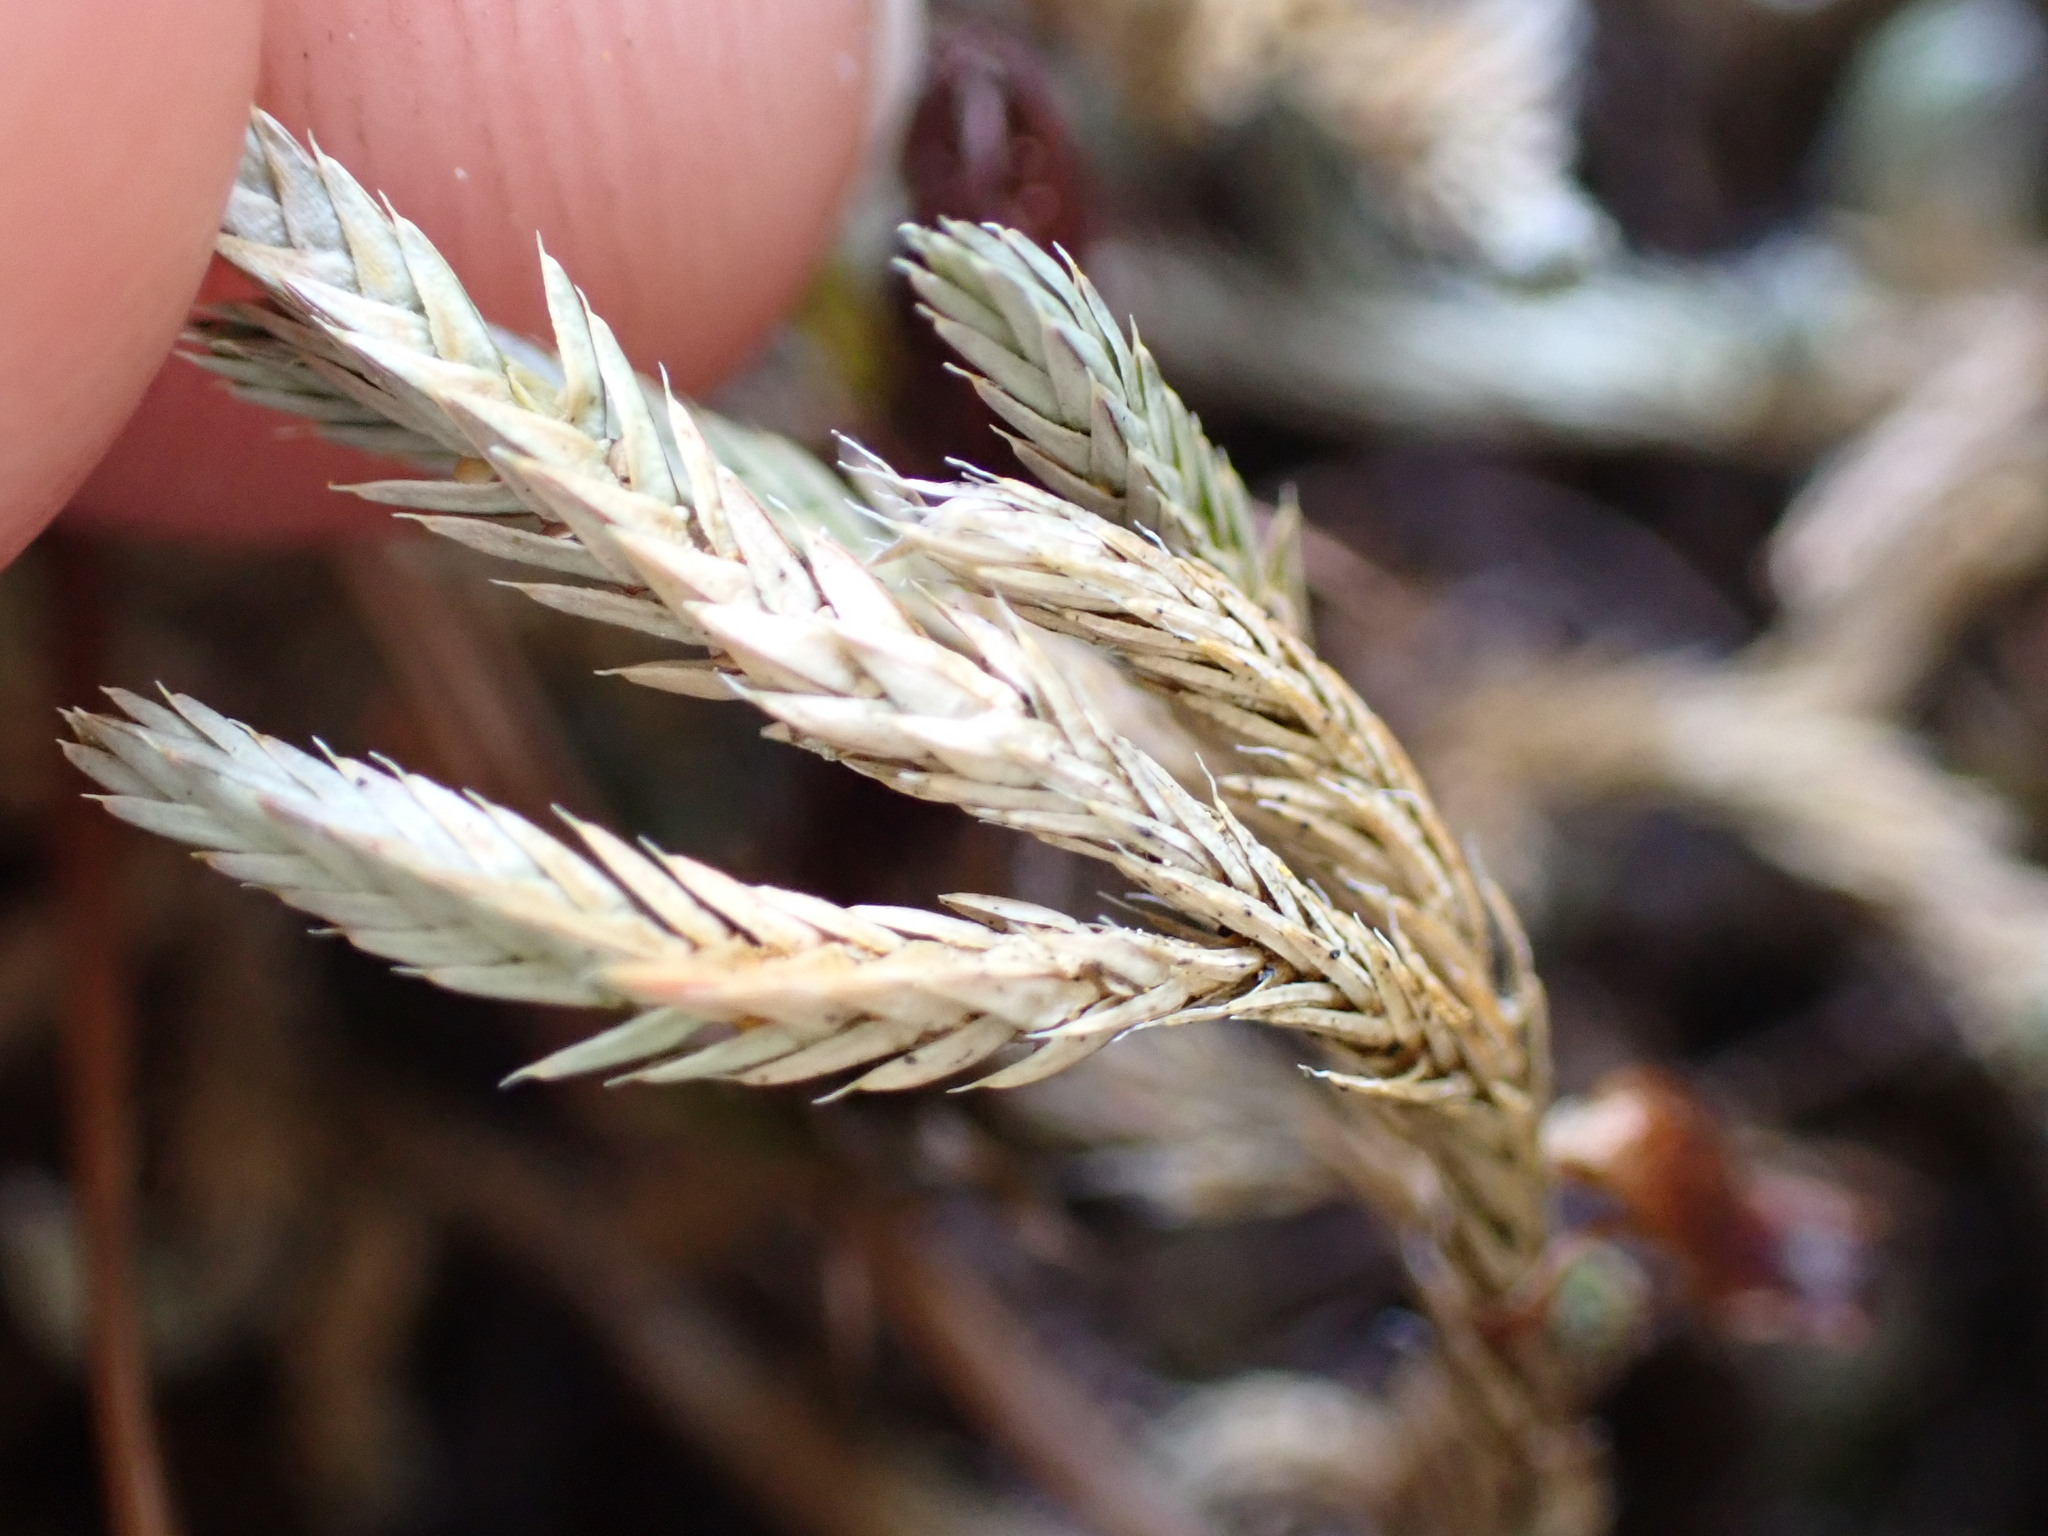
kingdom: Plantae
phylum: Tracheophyta
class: Lycopodiopsida
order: Selaginellales
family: Selaginellaceae
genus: Selaginella
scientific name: Selaginella wallacei
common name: Wallace's selaginella
